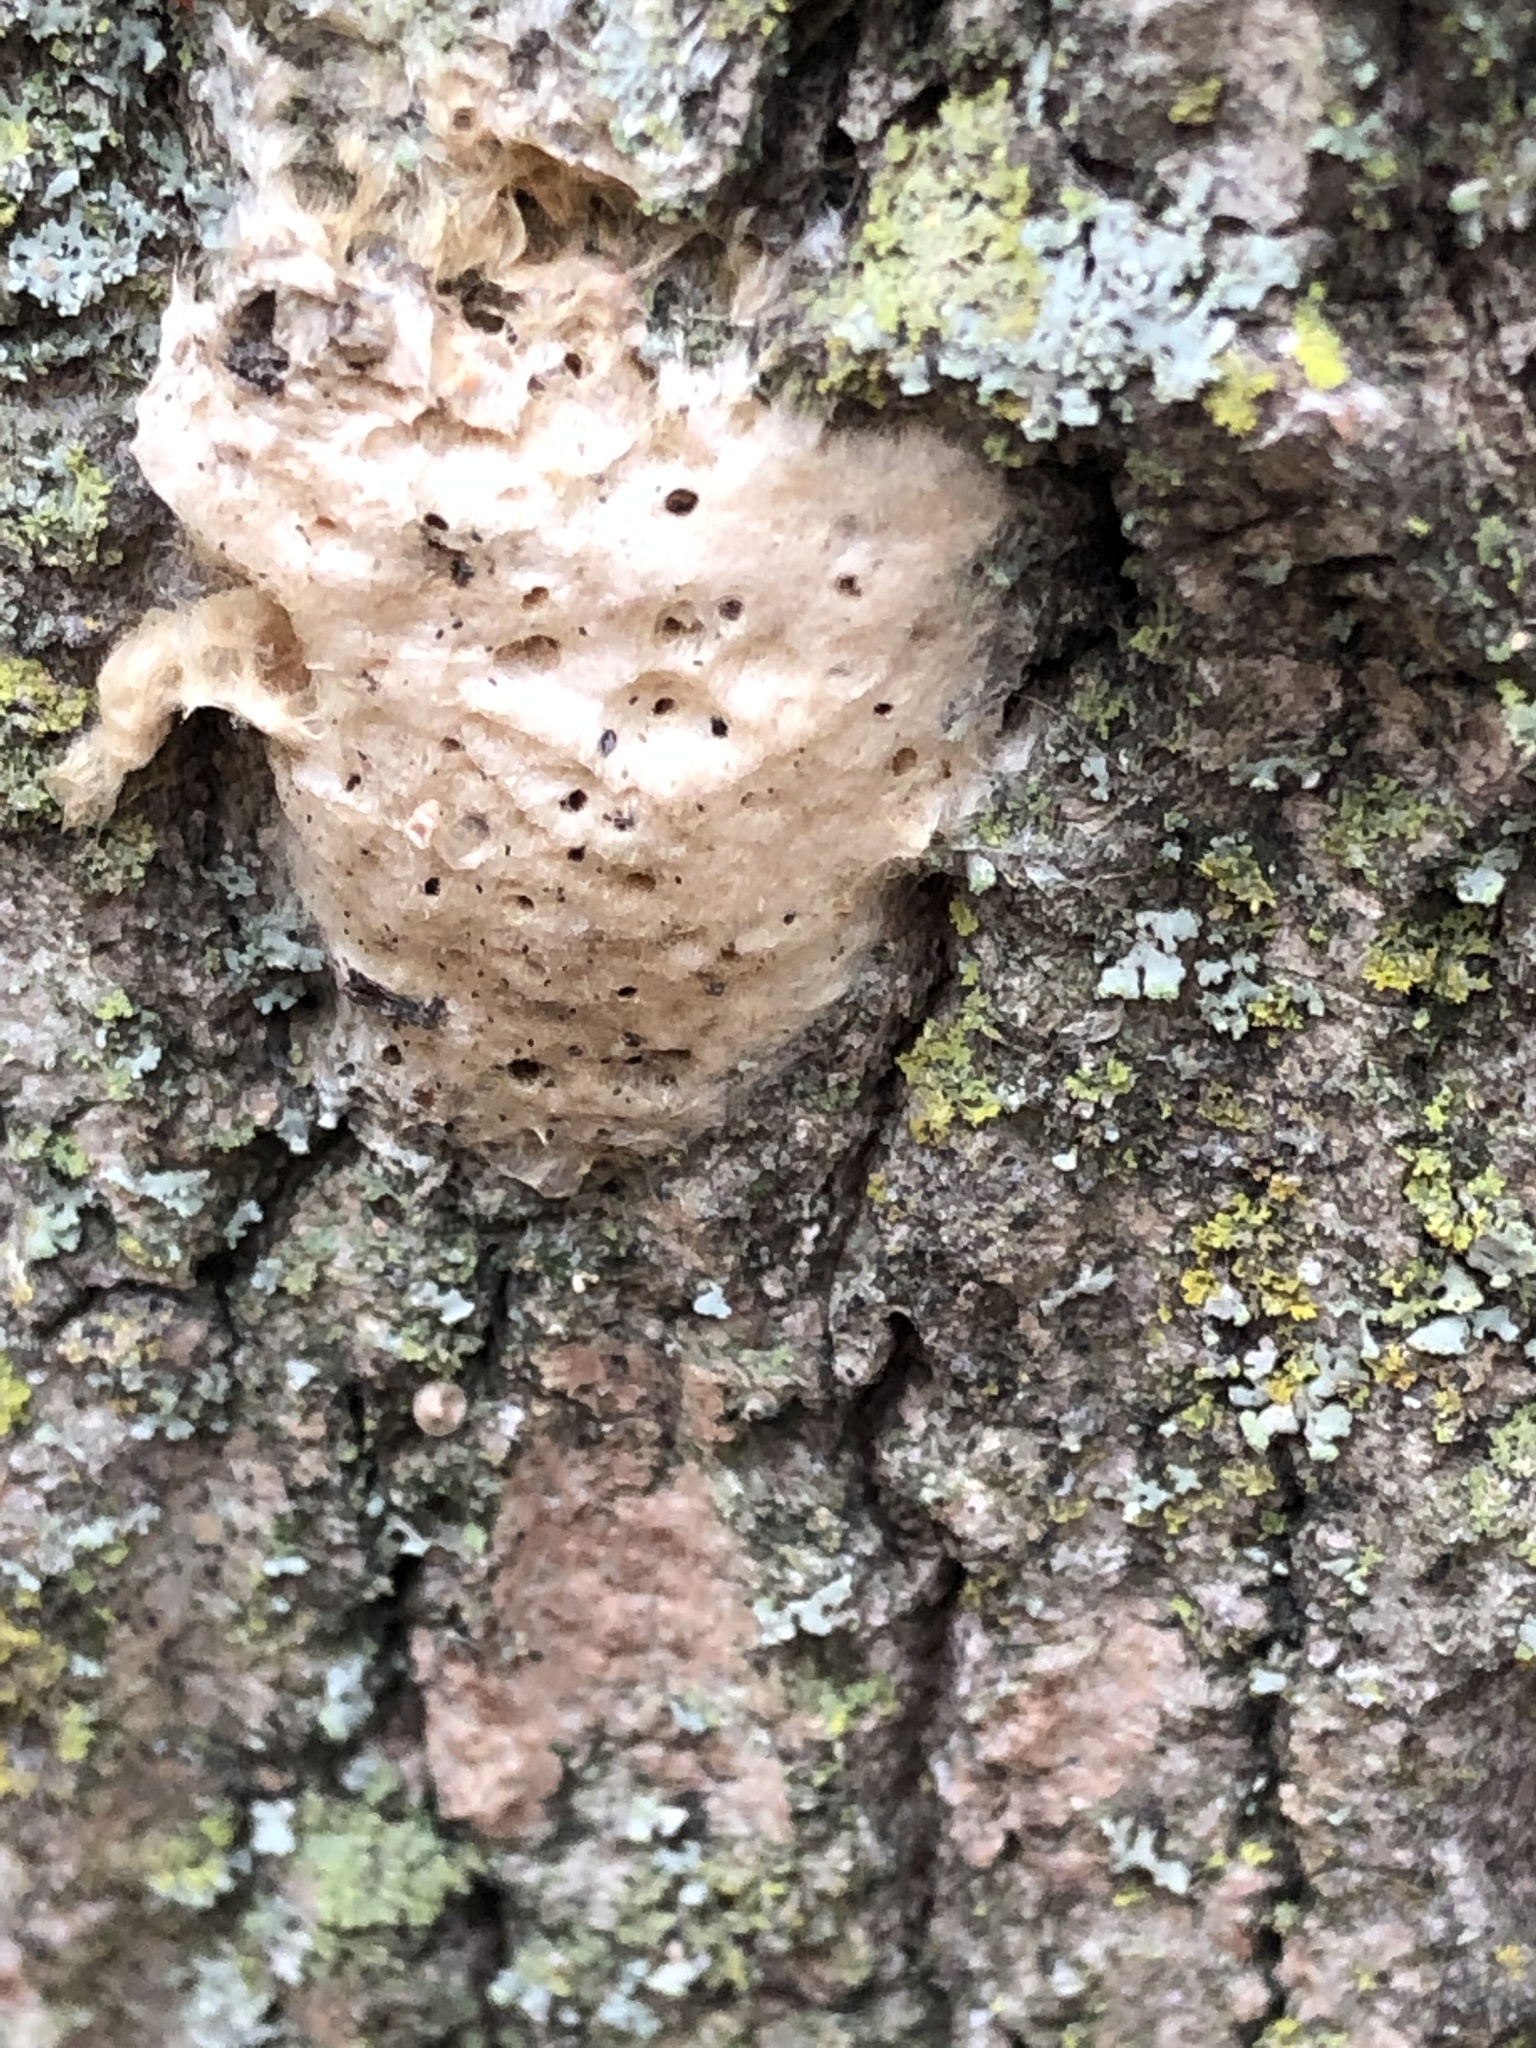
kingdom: Animalia
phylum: Arthropoda
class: Insecta
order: Lepidoptera
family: Erebidae
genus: Lymantria
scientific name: Lymantria dispar
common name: Gypsy moth
